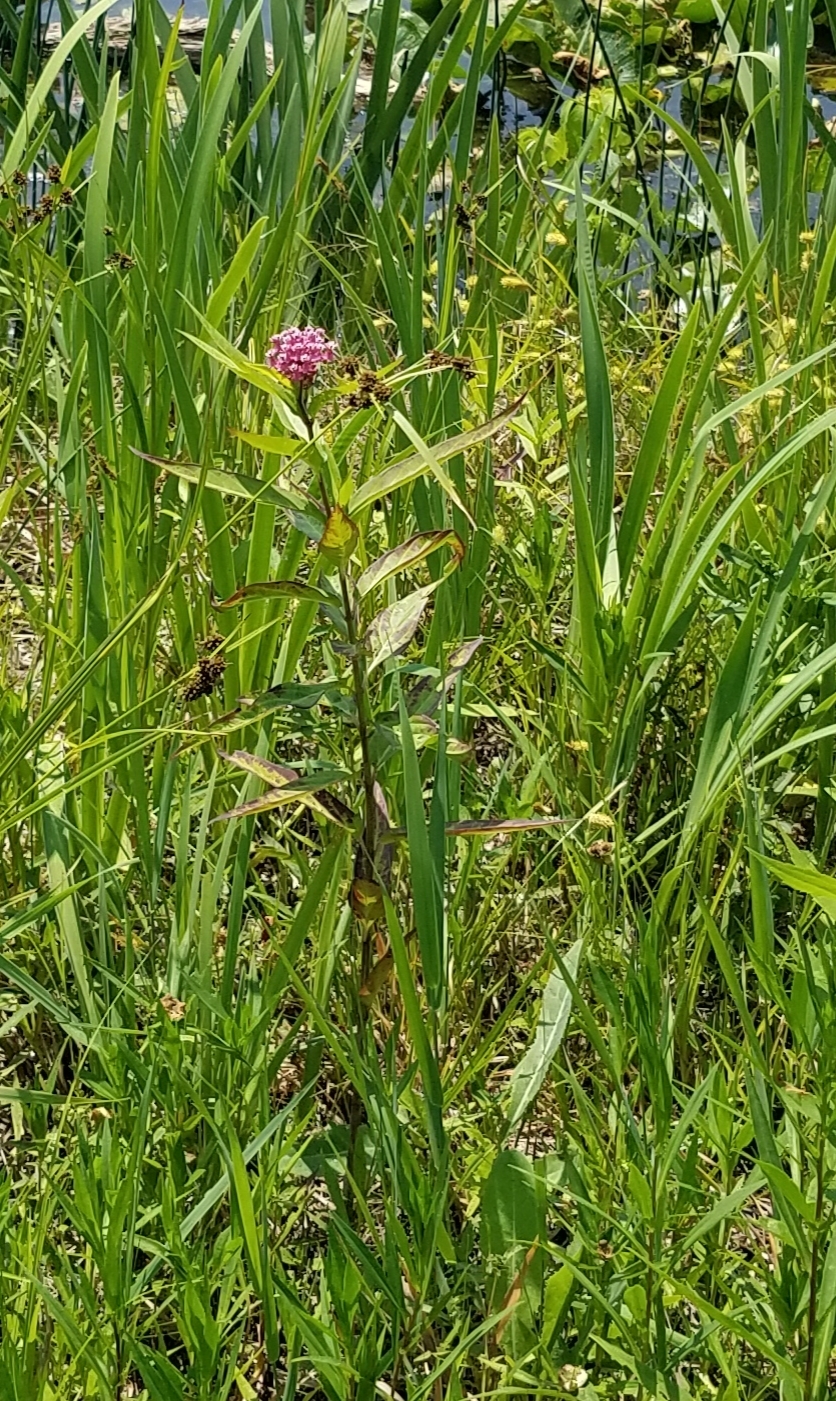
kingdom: Plantae
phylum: Tracheophyta
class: Magnoliopsida
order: Gentianales
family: Apocynaceae
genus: Asclepias
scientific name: Asclepias incarnata
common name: Swamp milkweed
